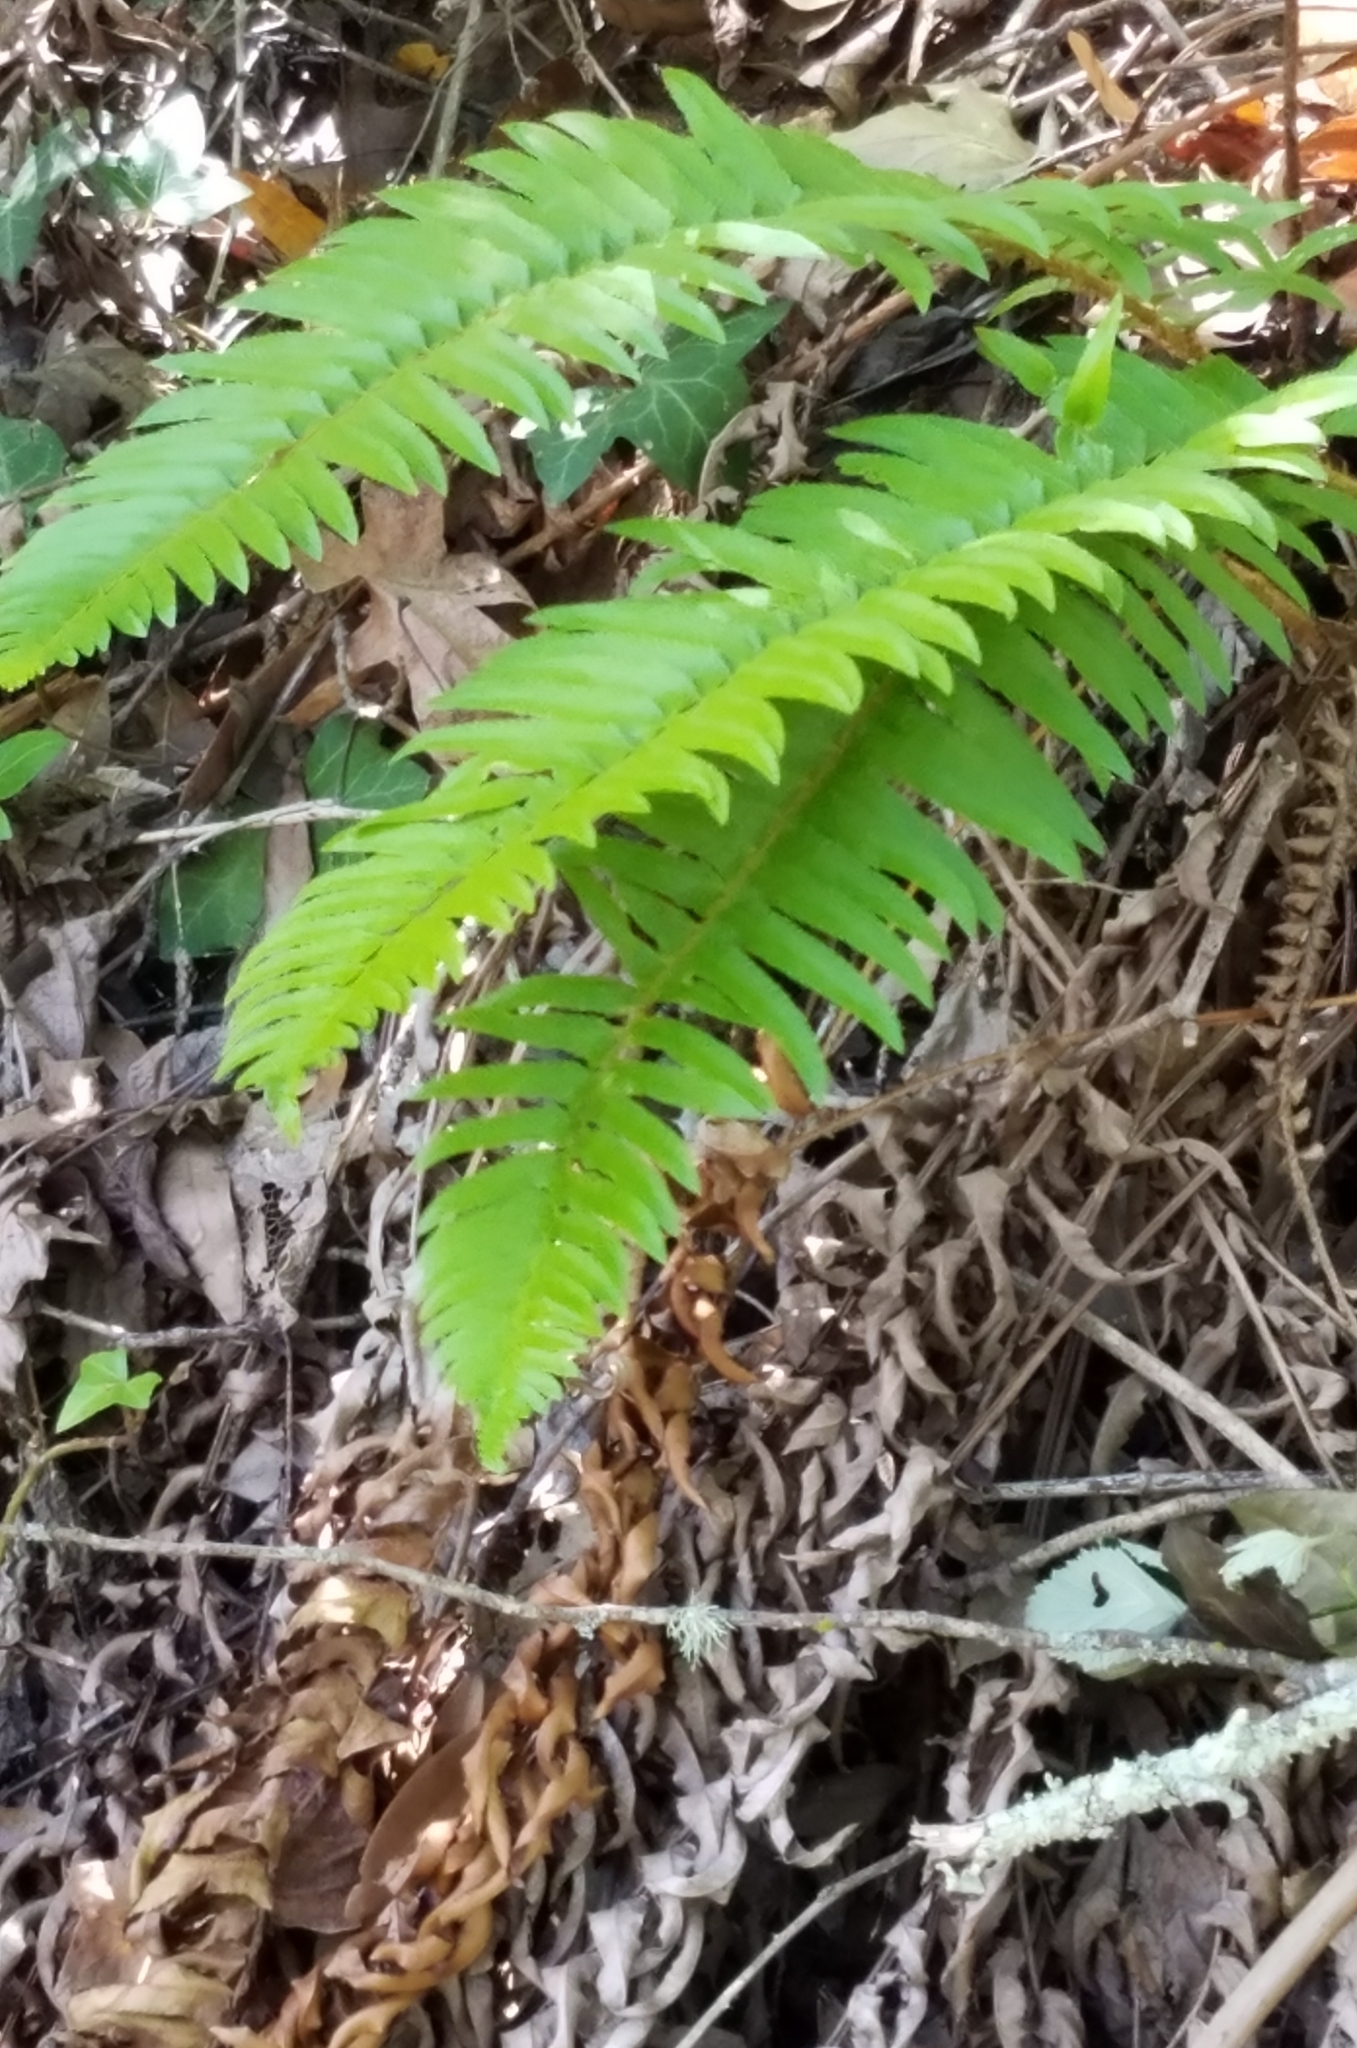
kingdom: Plantae
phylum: Tracheophyta
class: Polypodiopsida
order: Polypodiales
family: Dryopteridaceae
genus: Polystichum
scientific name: Polystichum munitum
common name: Western sword-fern
